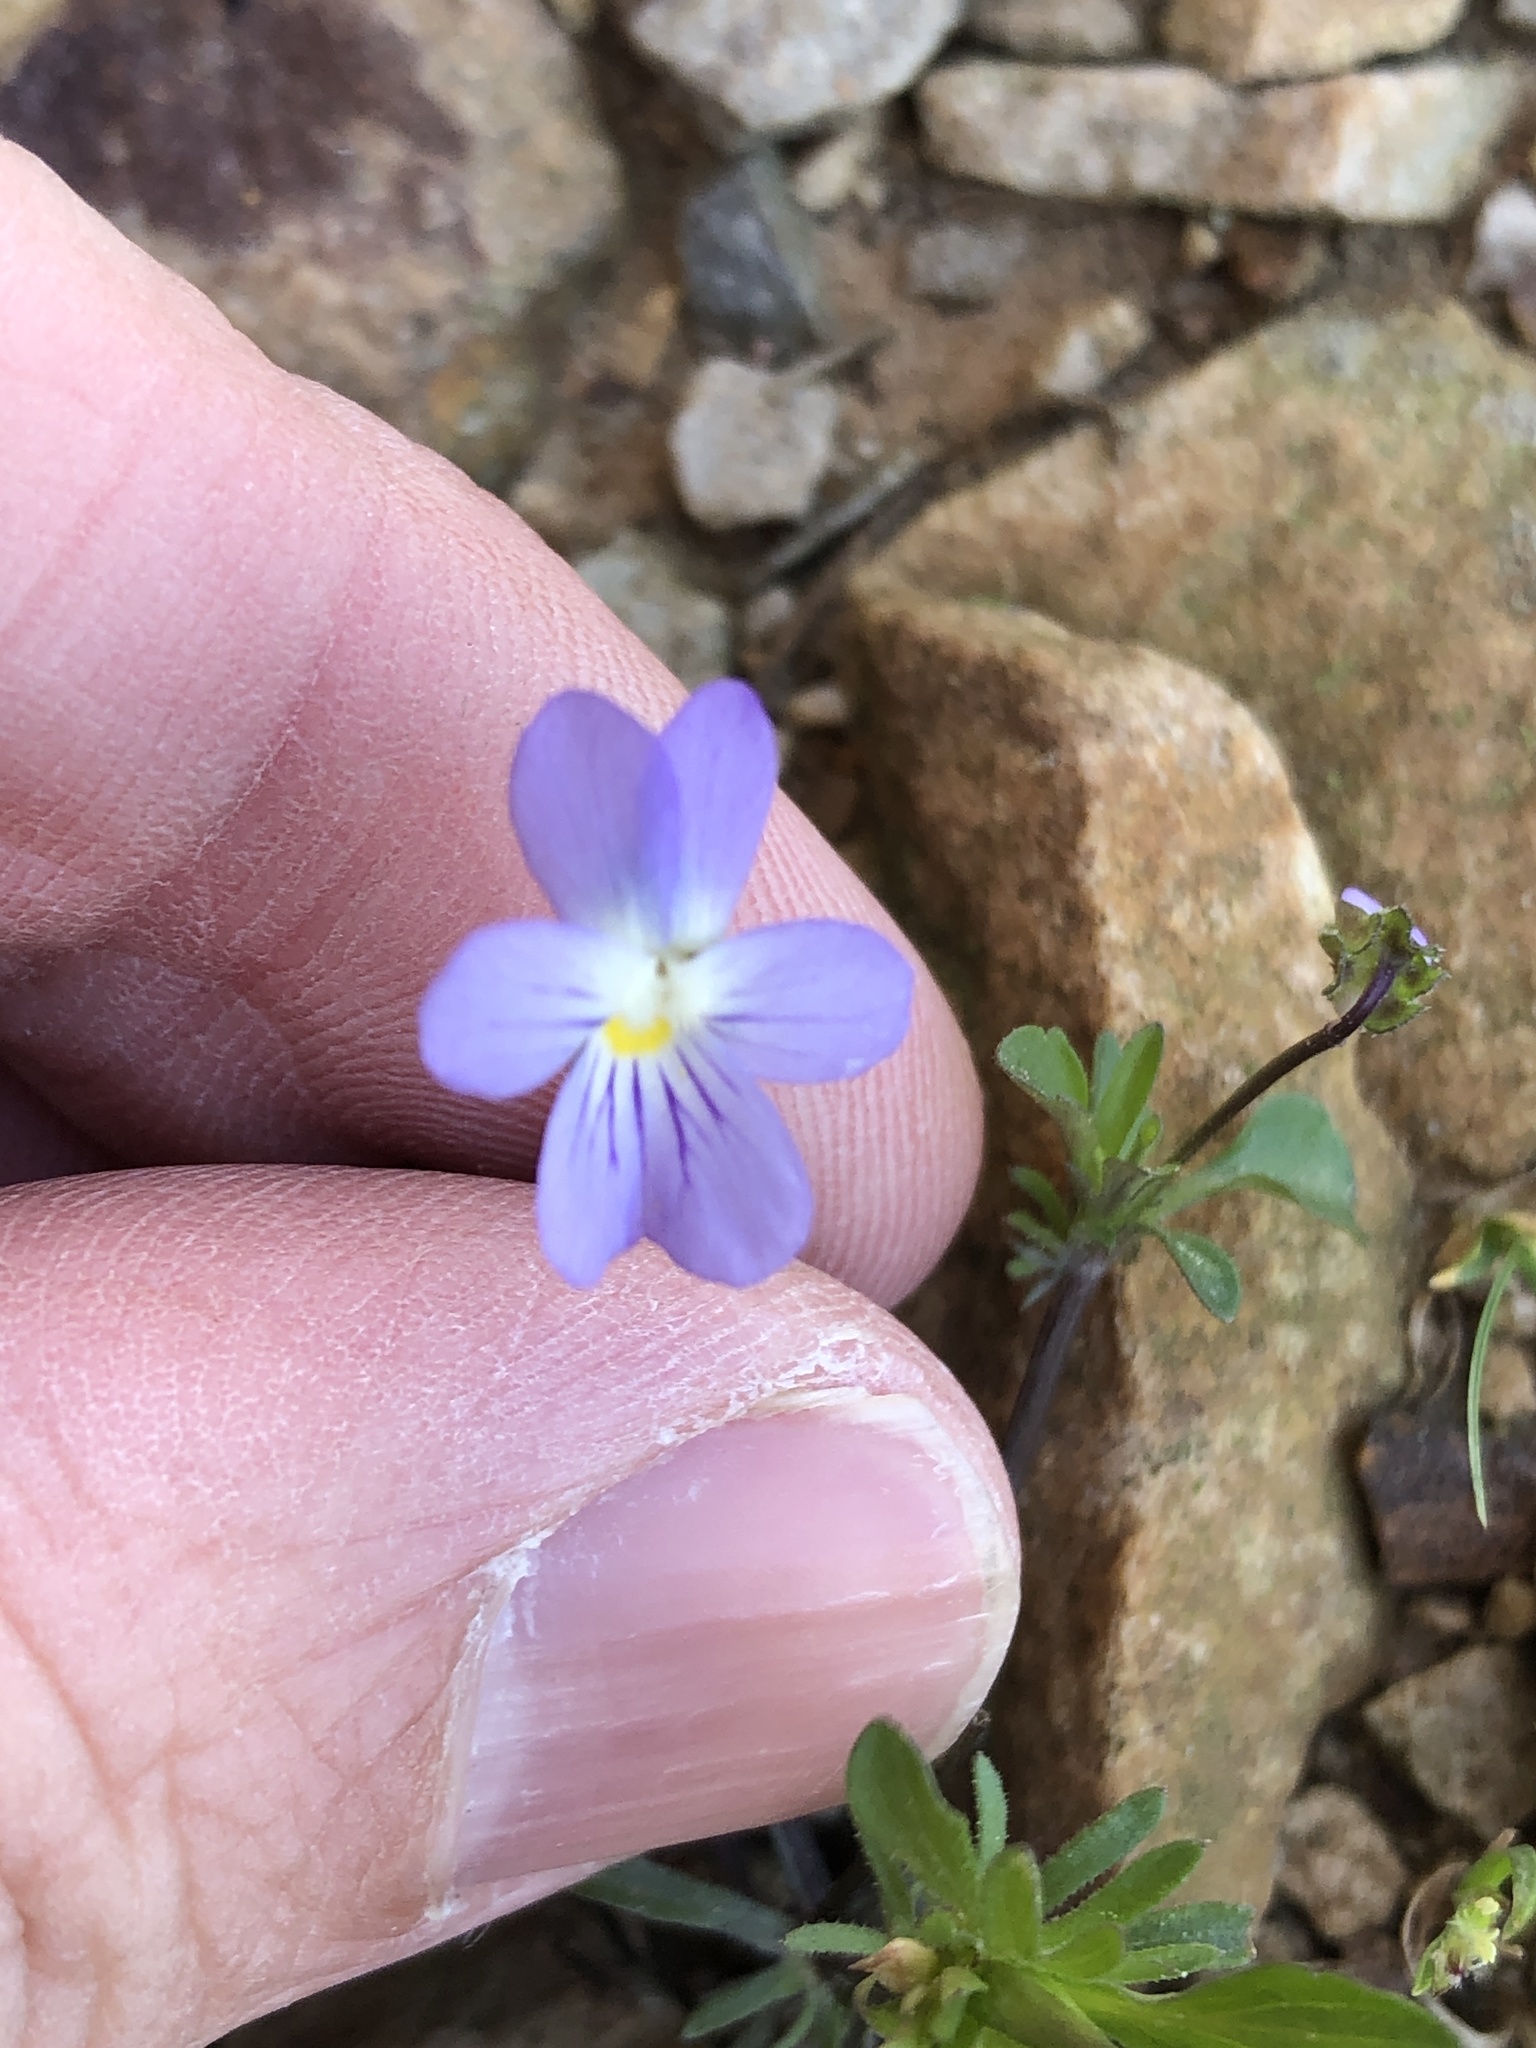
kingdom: Plantae
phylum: Tracheophyta
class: Magnoliopsida
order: Malpighiales
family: Violaceae
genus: Viola
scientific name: Viola rafinesquei
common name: American field pansy
